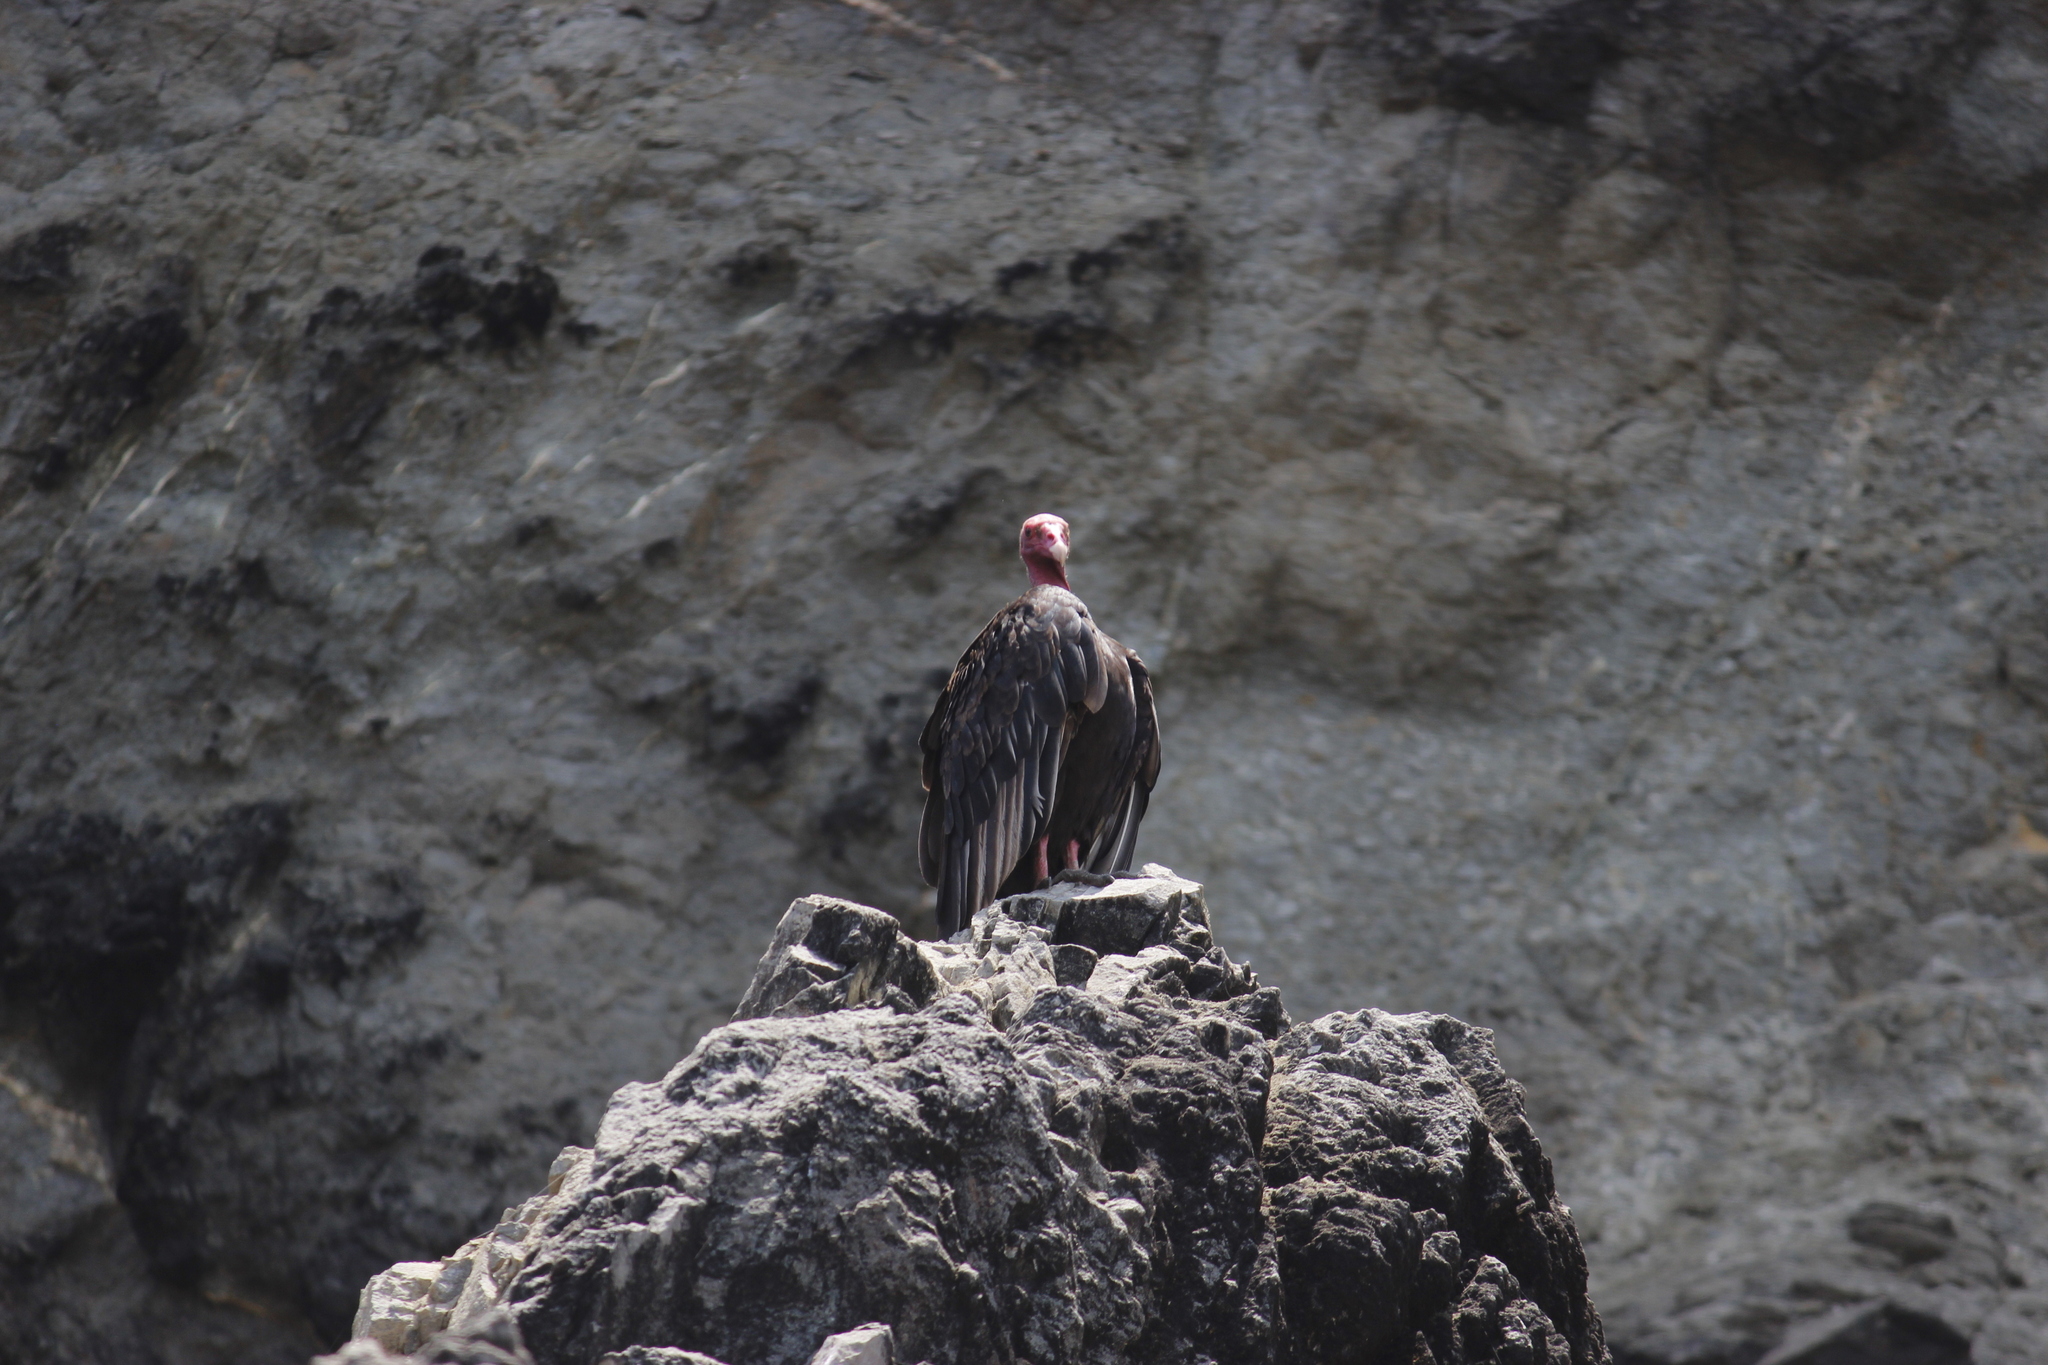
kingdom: Animalia
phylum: Chordata
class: Aves
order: Accipitriformes
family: Cathartidae
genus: Cathartes
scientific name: Cathartes aura
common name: Turkey vulture
